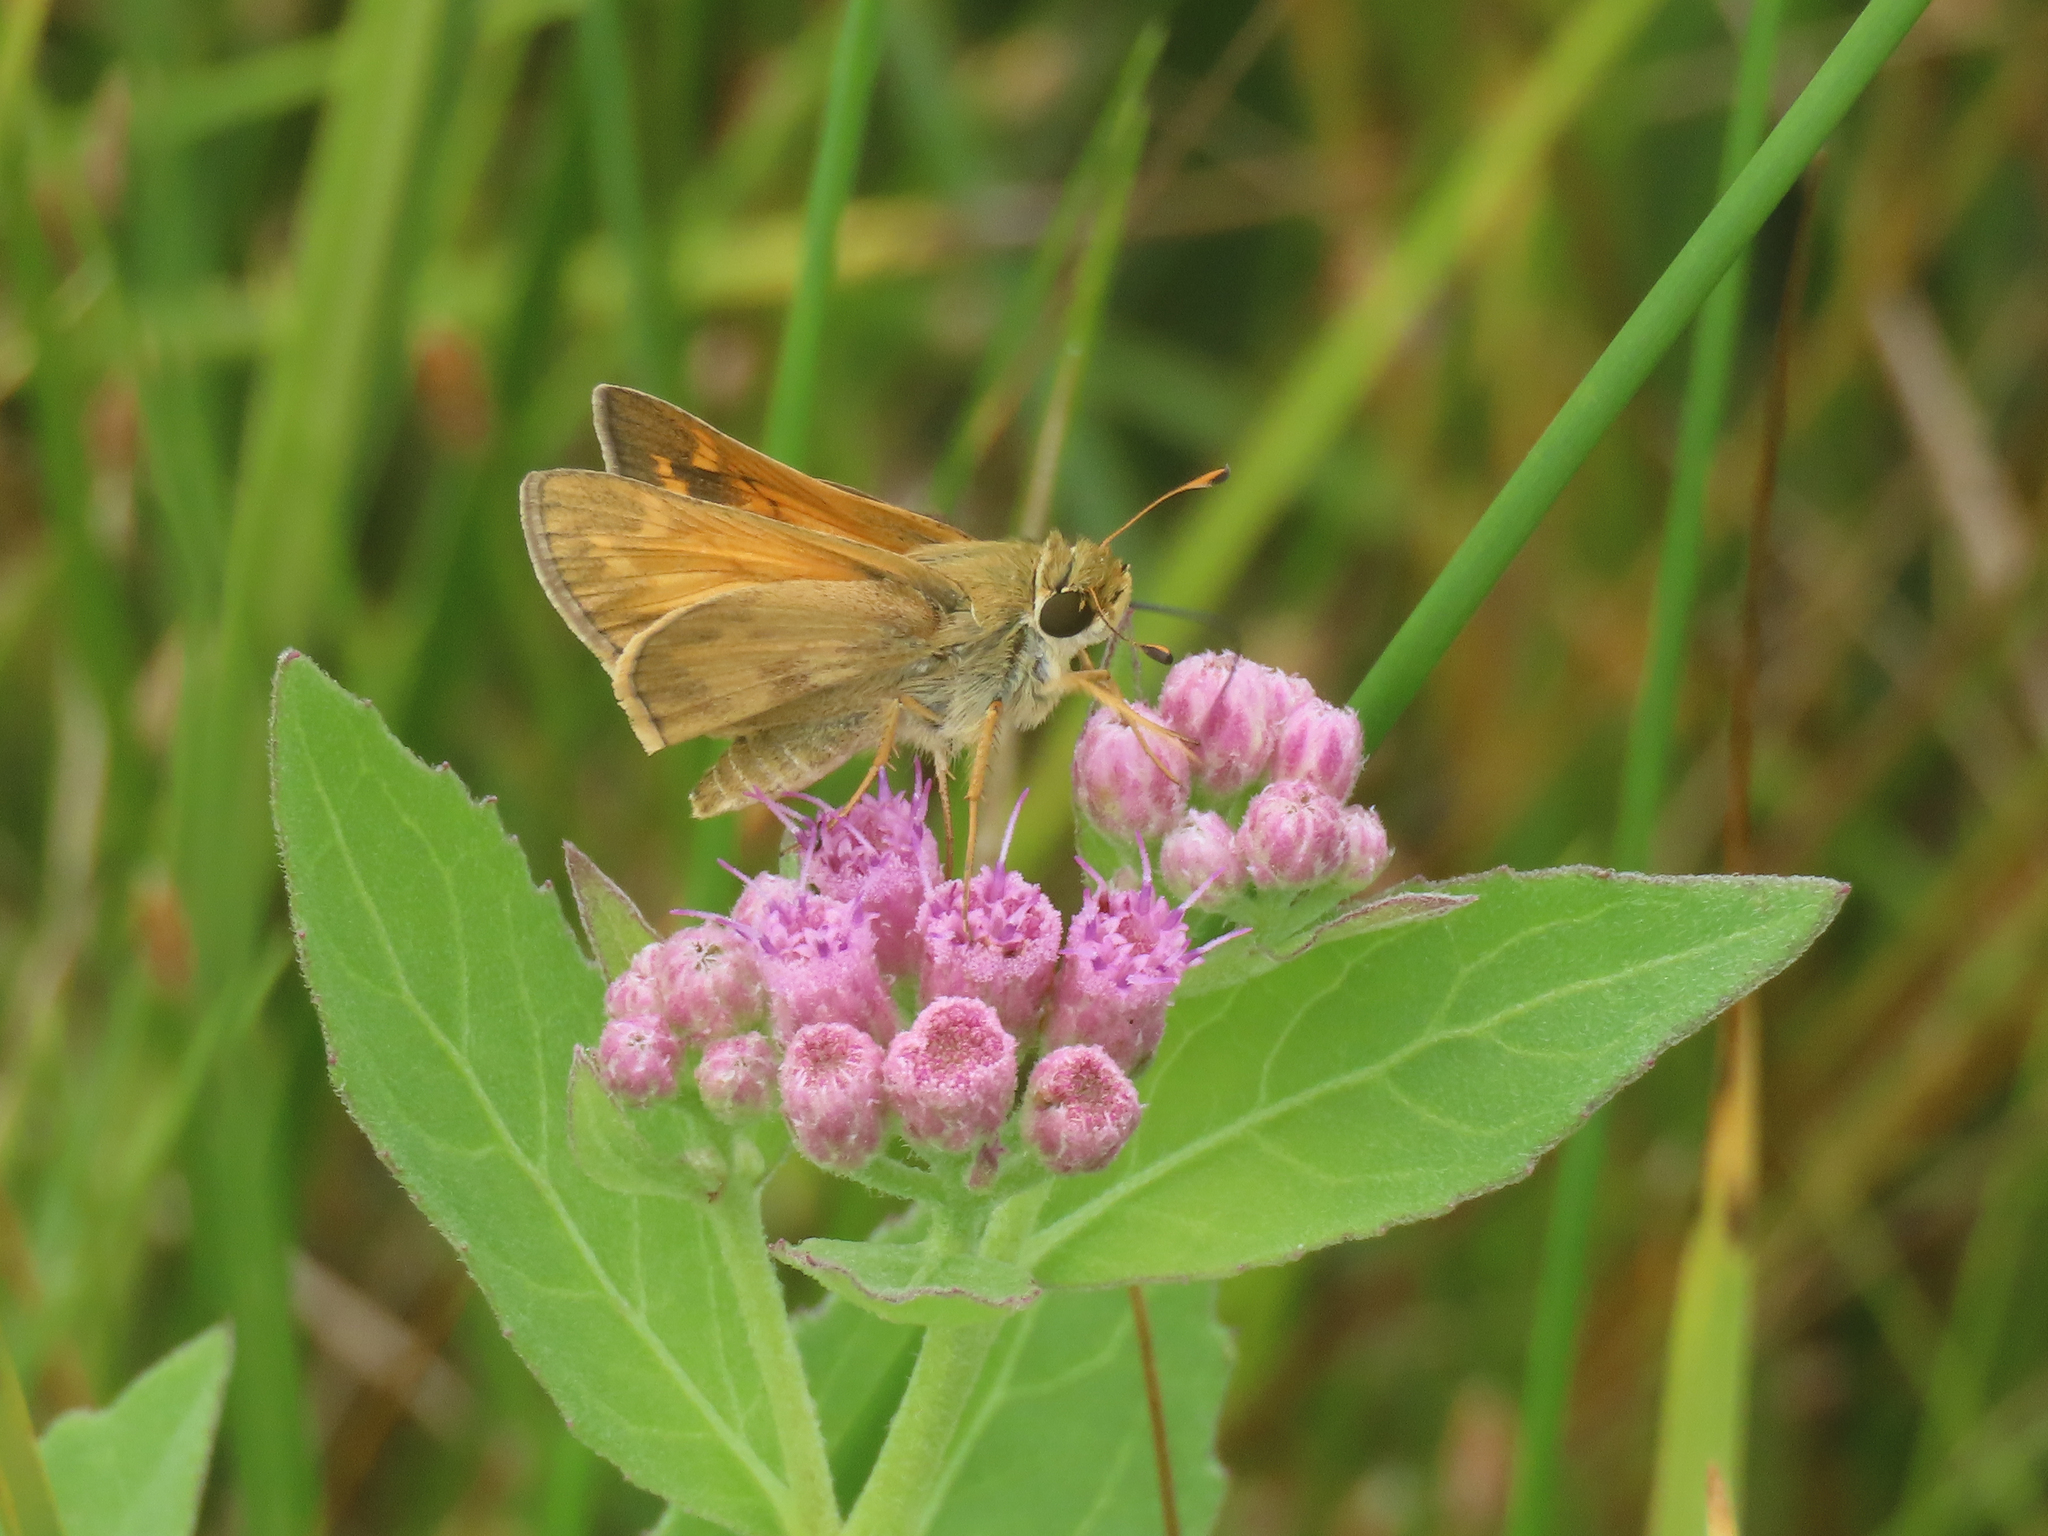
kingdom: Animalia
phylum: Arthropoda
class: Insecta
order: Lepidoptera
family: Hesperiidae
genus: Atalopedes
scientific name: Atalopedes
